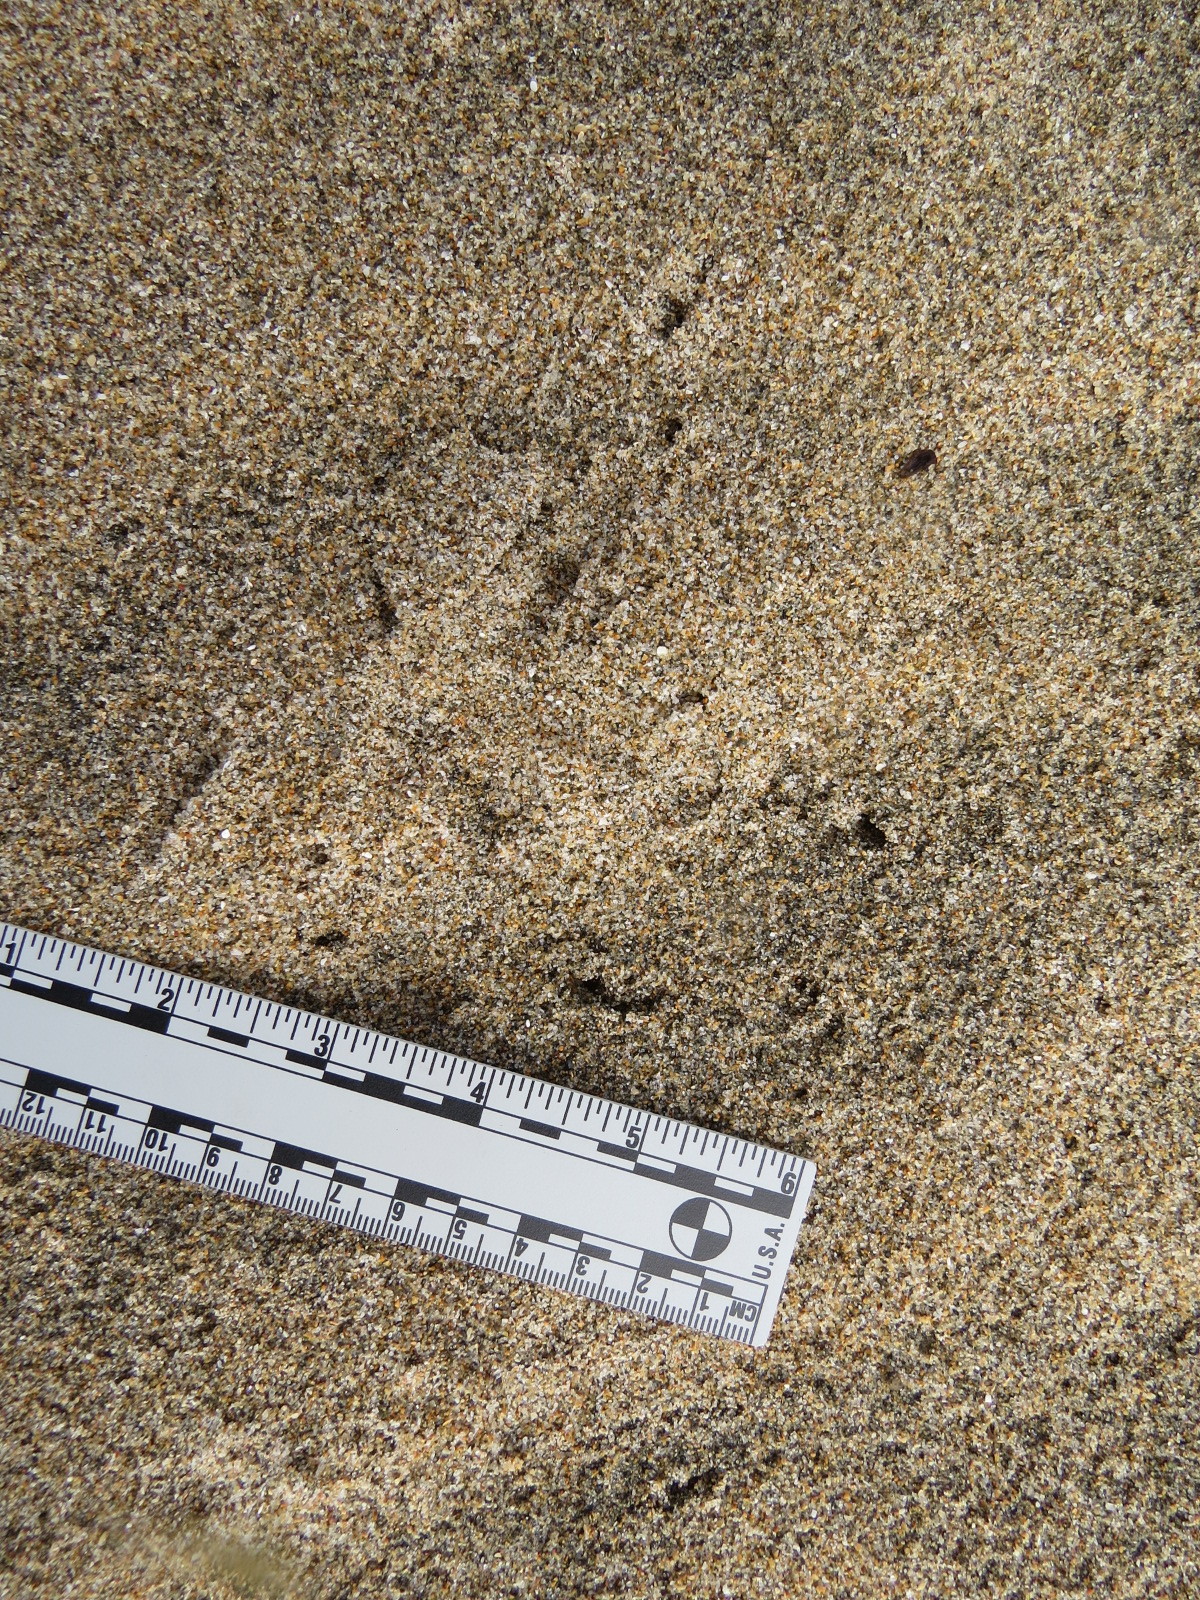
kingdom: Animalia
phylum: Chordata
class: Aves
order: Falconiformes
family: Falconidae
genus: Falco
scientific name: Falco peregrinus
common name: Peregrine falcon
